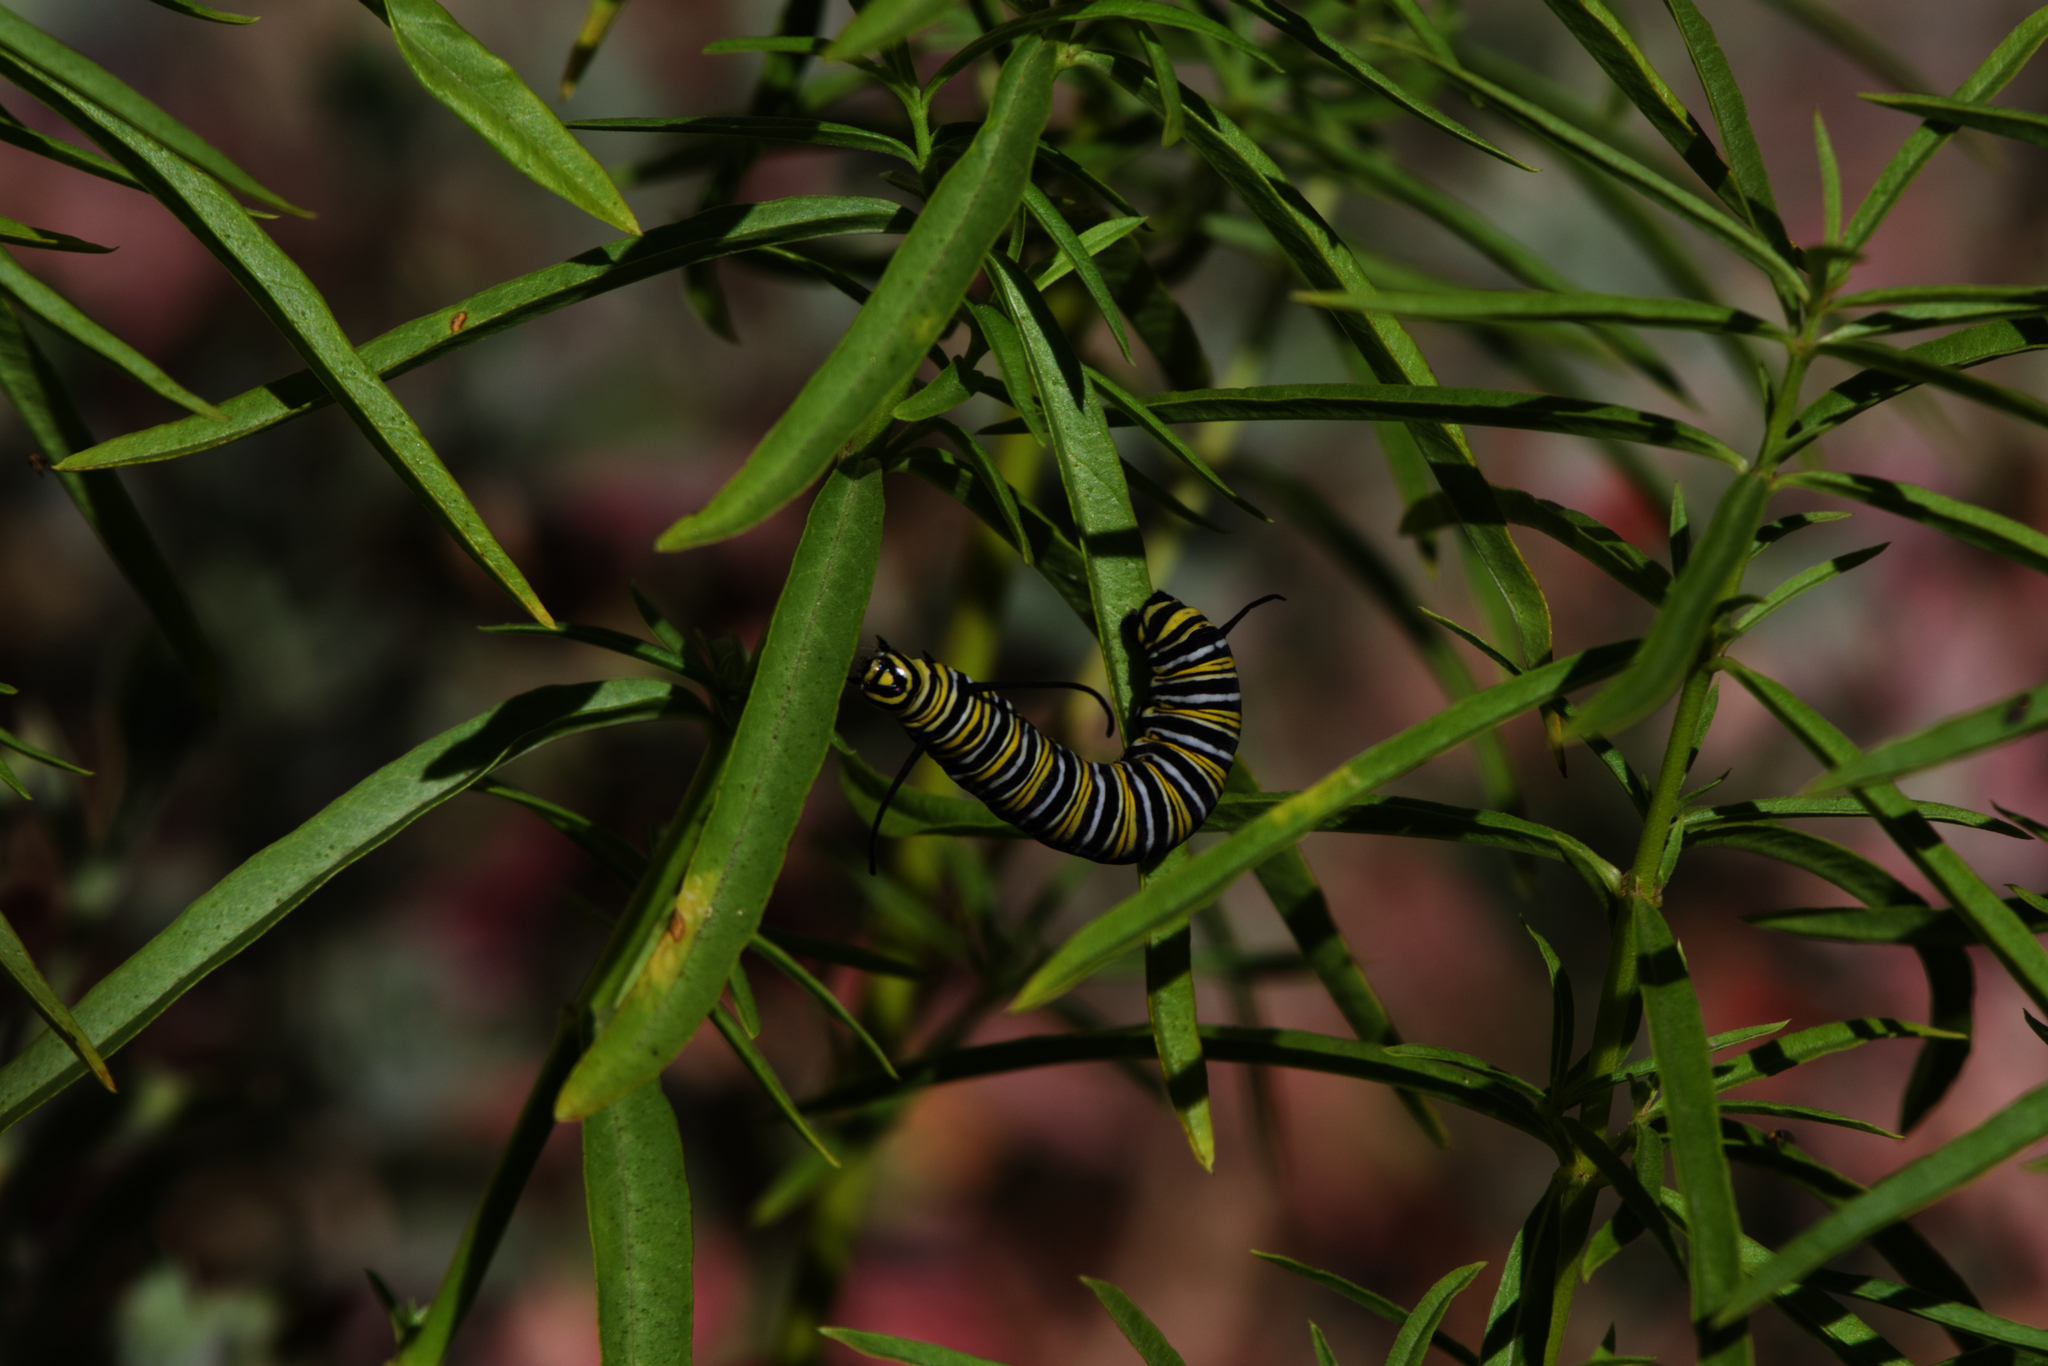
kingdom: Animalia
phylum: Arthropoda
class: Insecta
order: Lepidoptera
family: Nymphalidae
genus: Danaus
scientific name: Danaus plexippus
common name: Monarch
